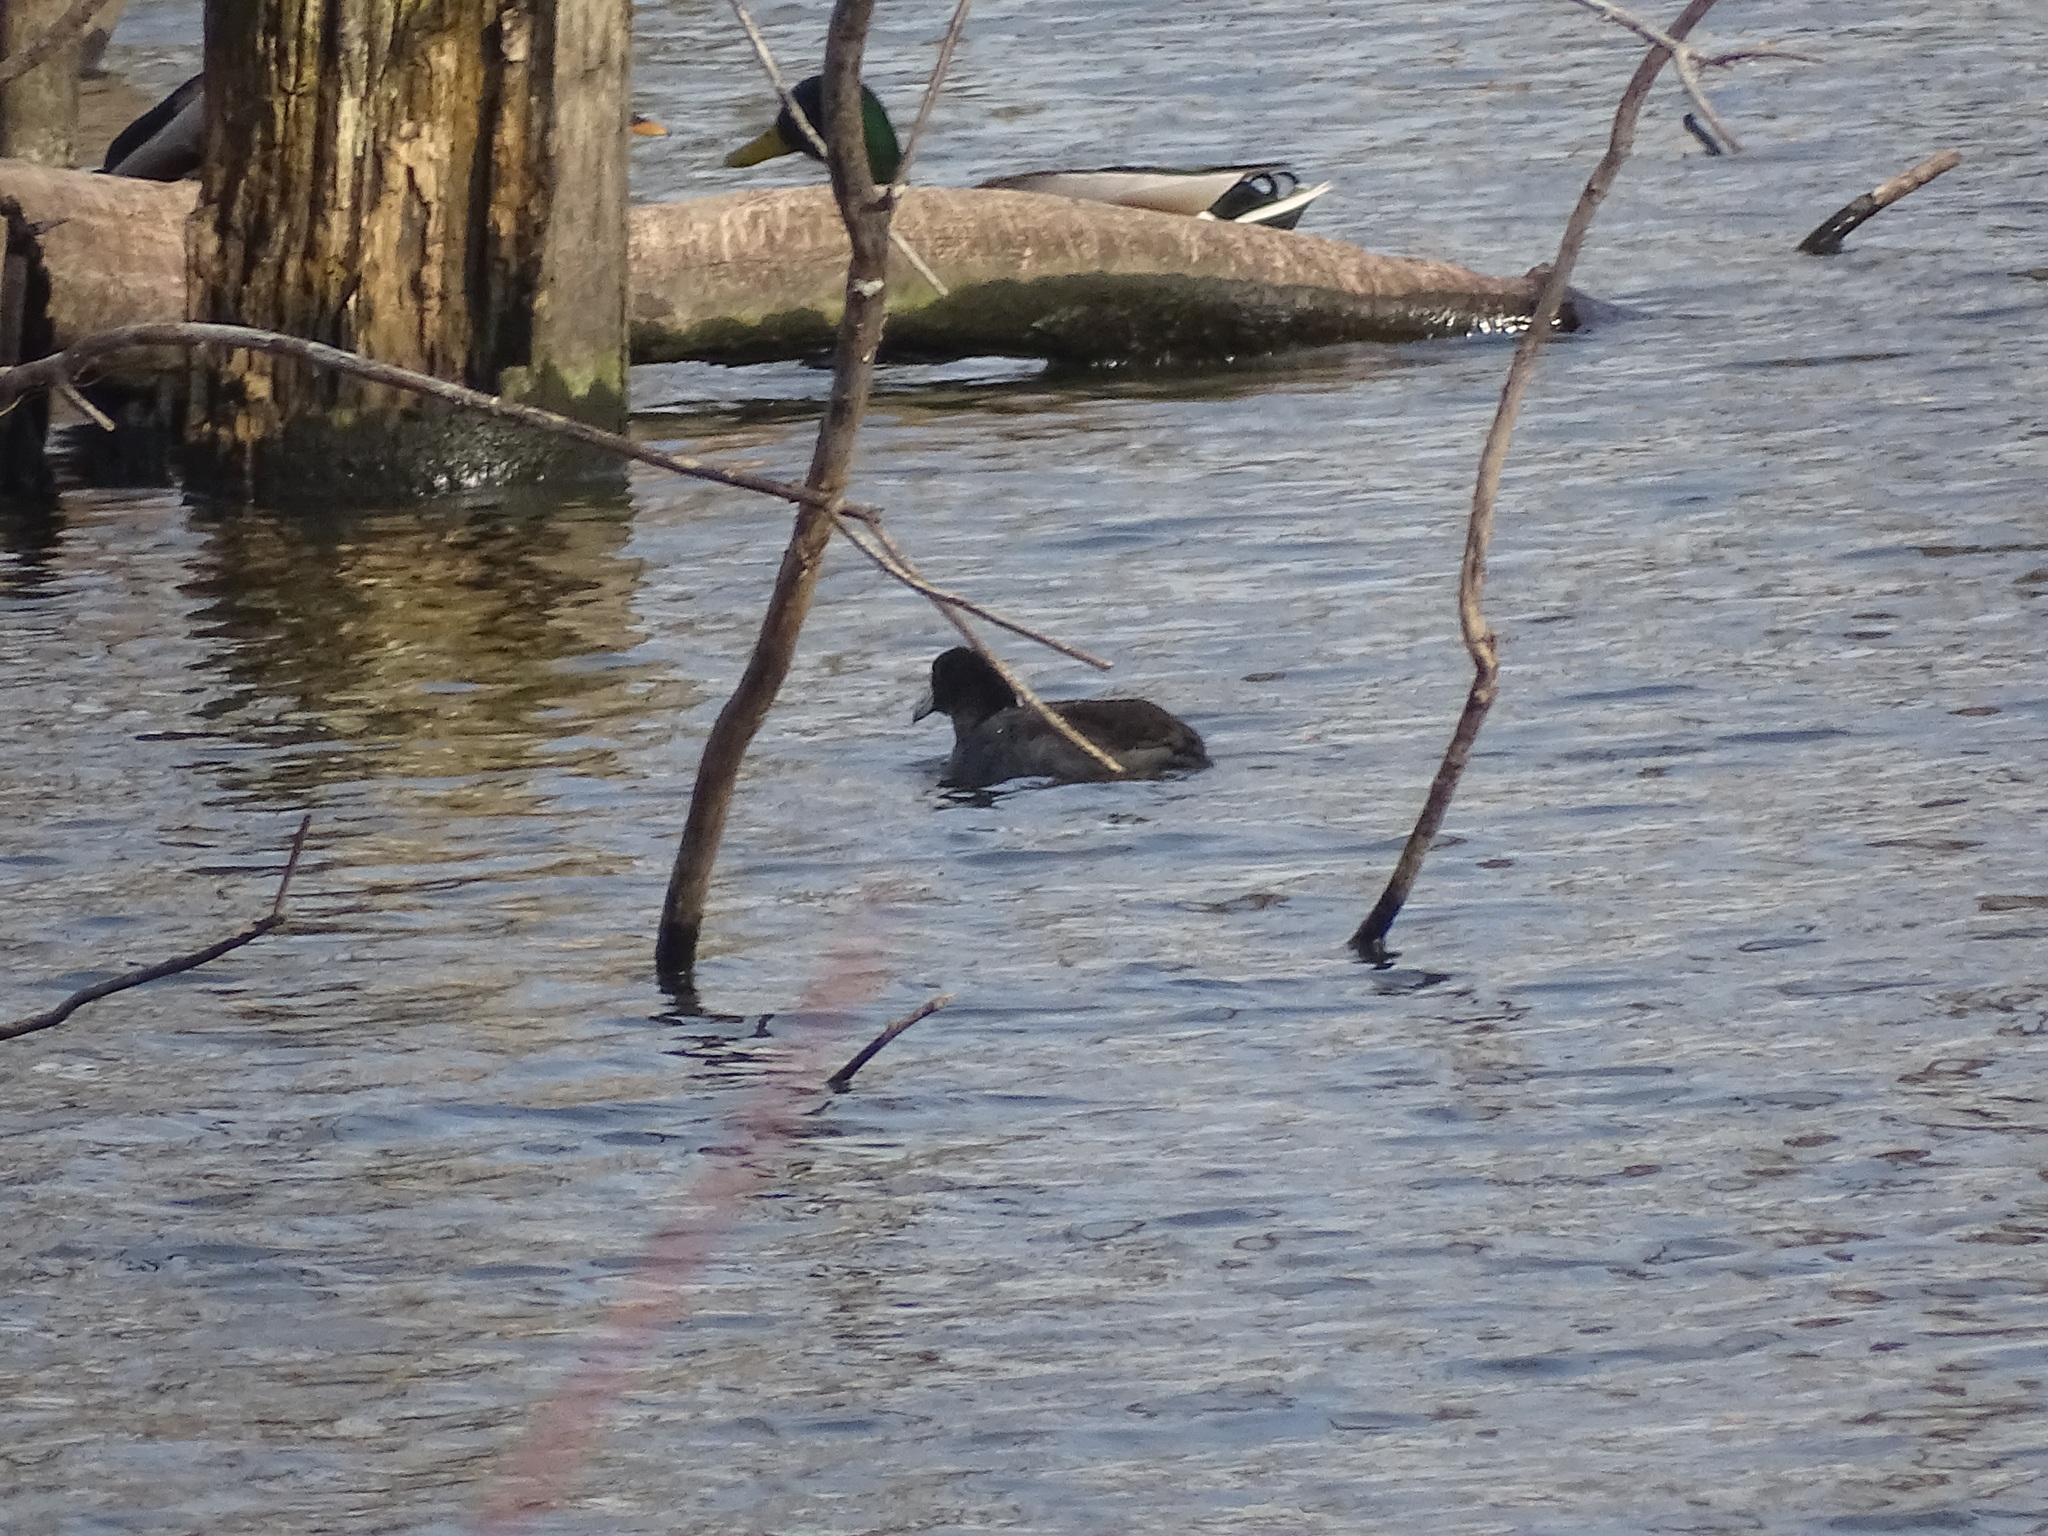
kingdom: Animalia
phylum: Chordata
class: Aves
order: Gruiformes
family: Rallidae
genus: Fulica
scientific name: Fulica americana
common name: American coot
